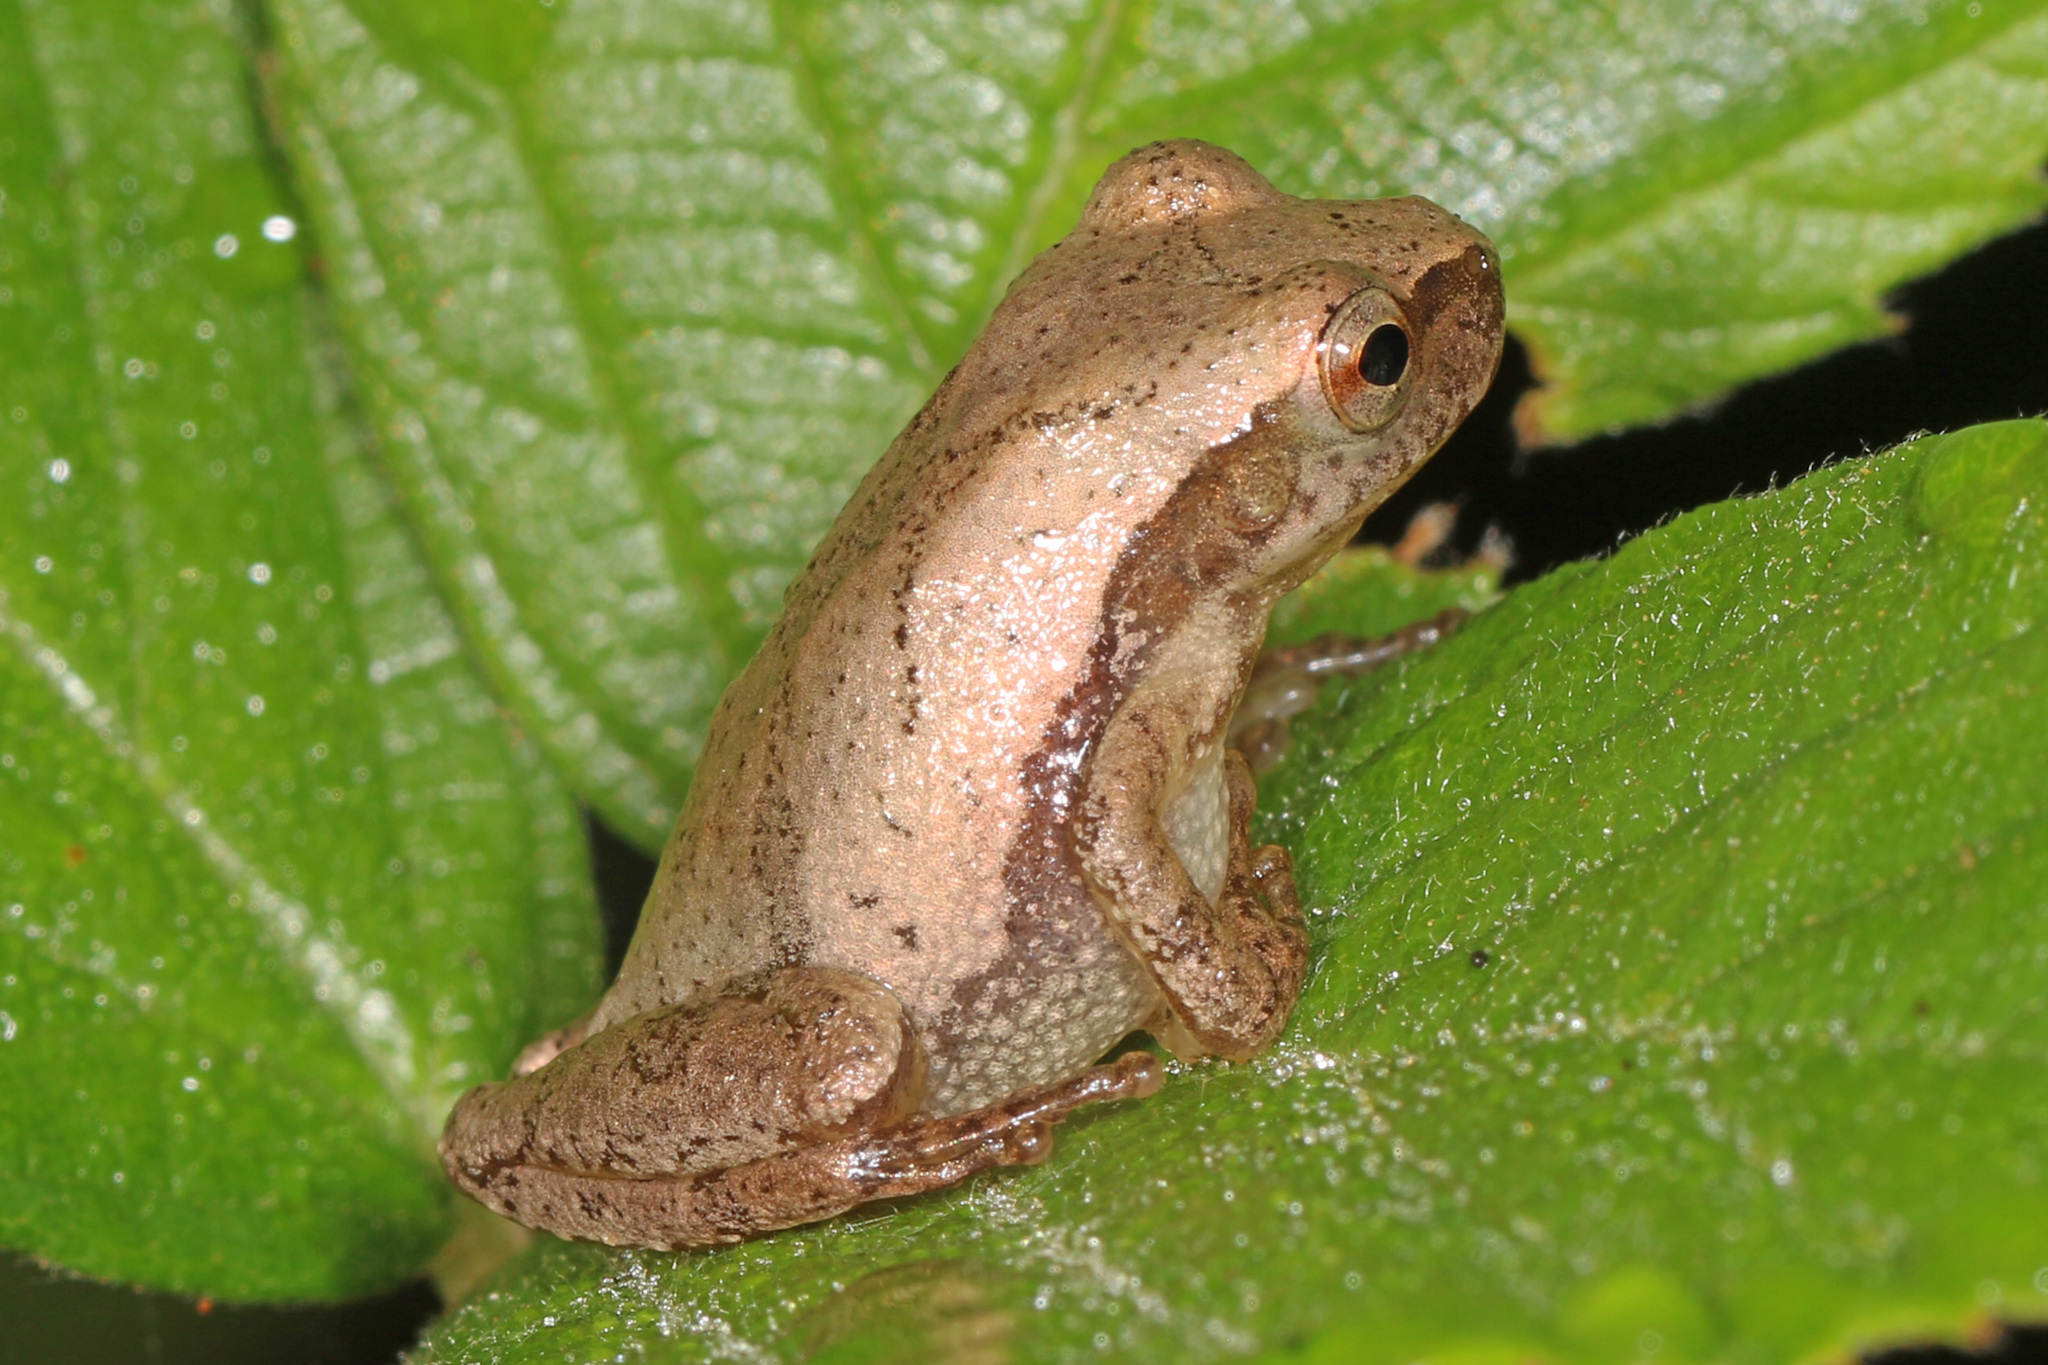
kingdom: Animalia
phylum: Chordata
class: Amphibia
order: Anura
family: Hylidae
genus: Pseudacris
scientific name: Pseudacris crucifer
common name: Spring peeper
